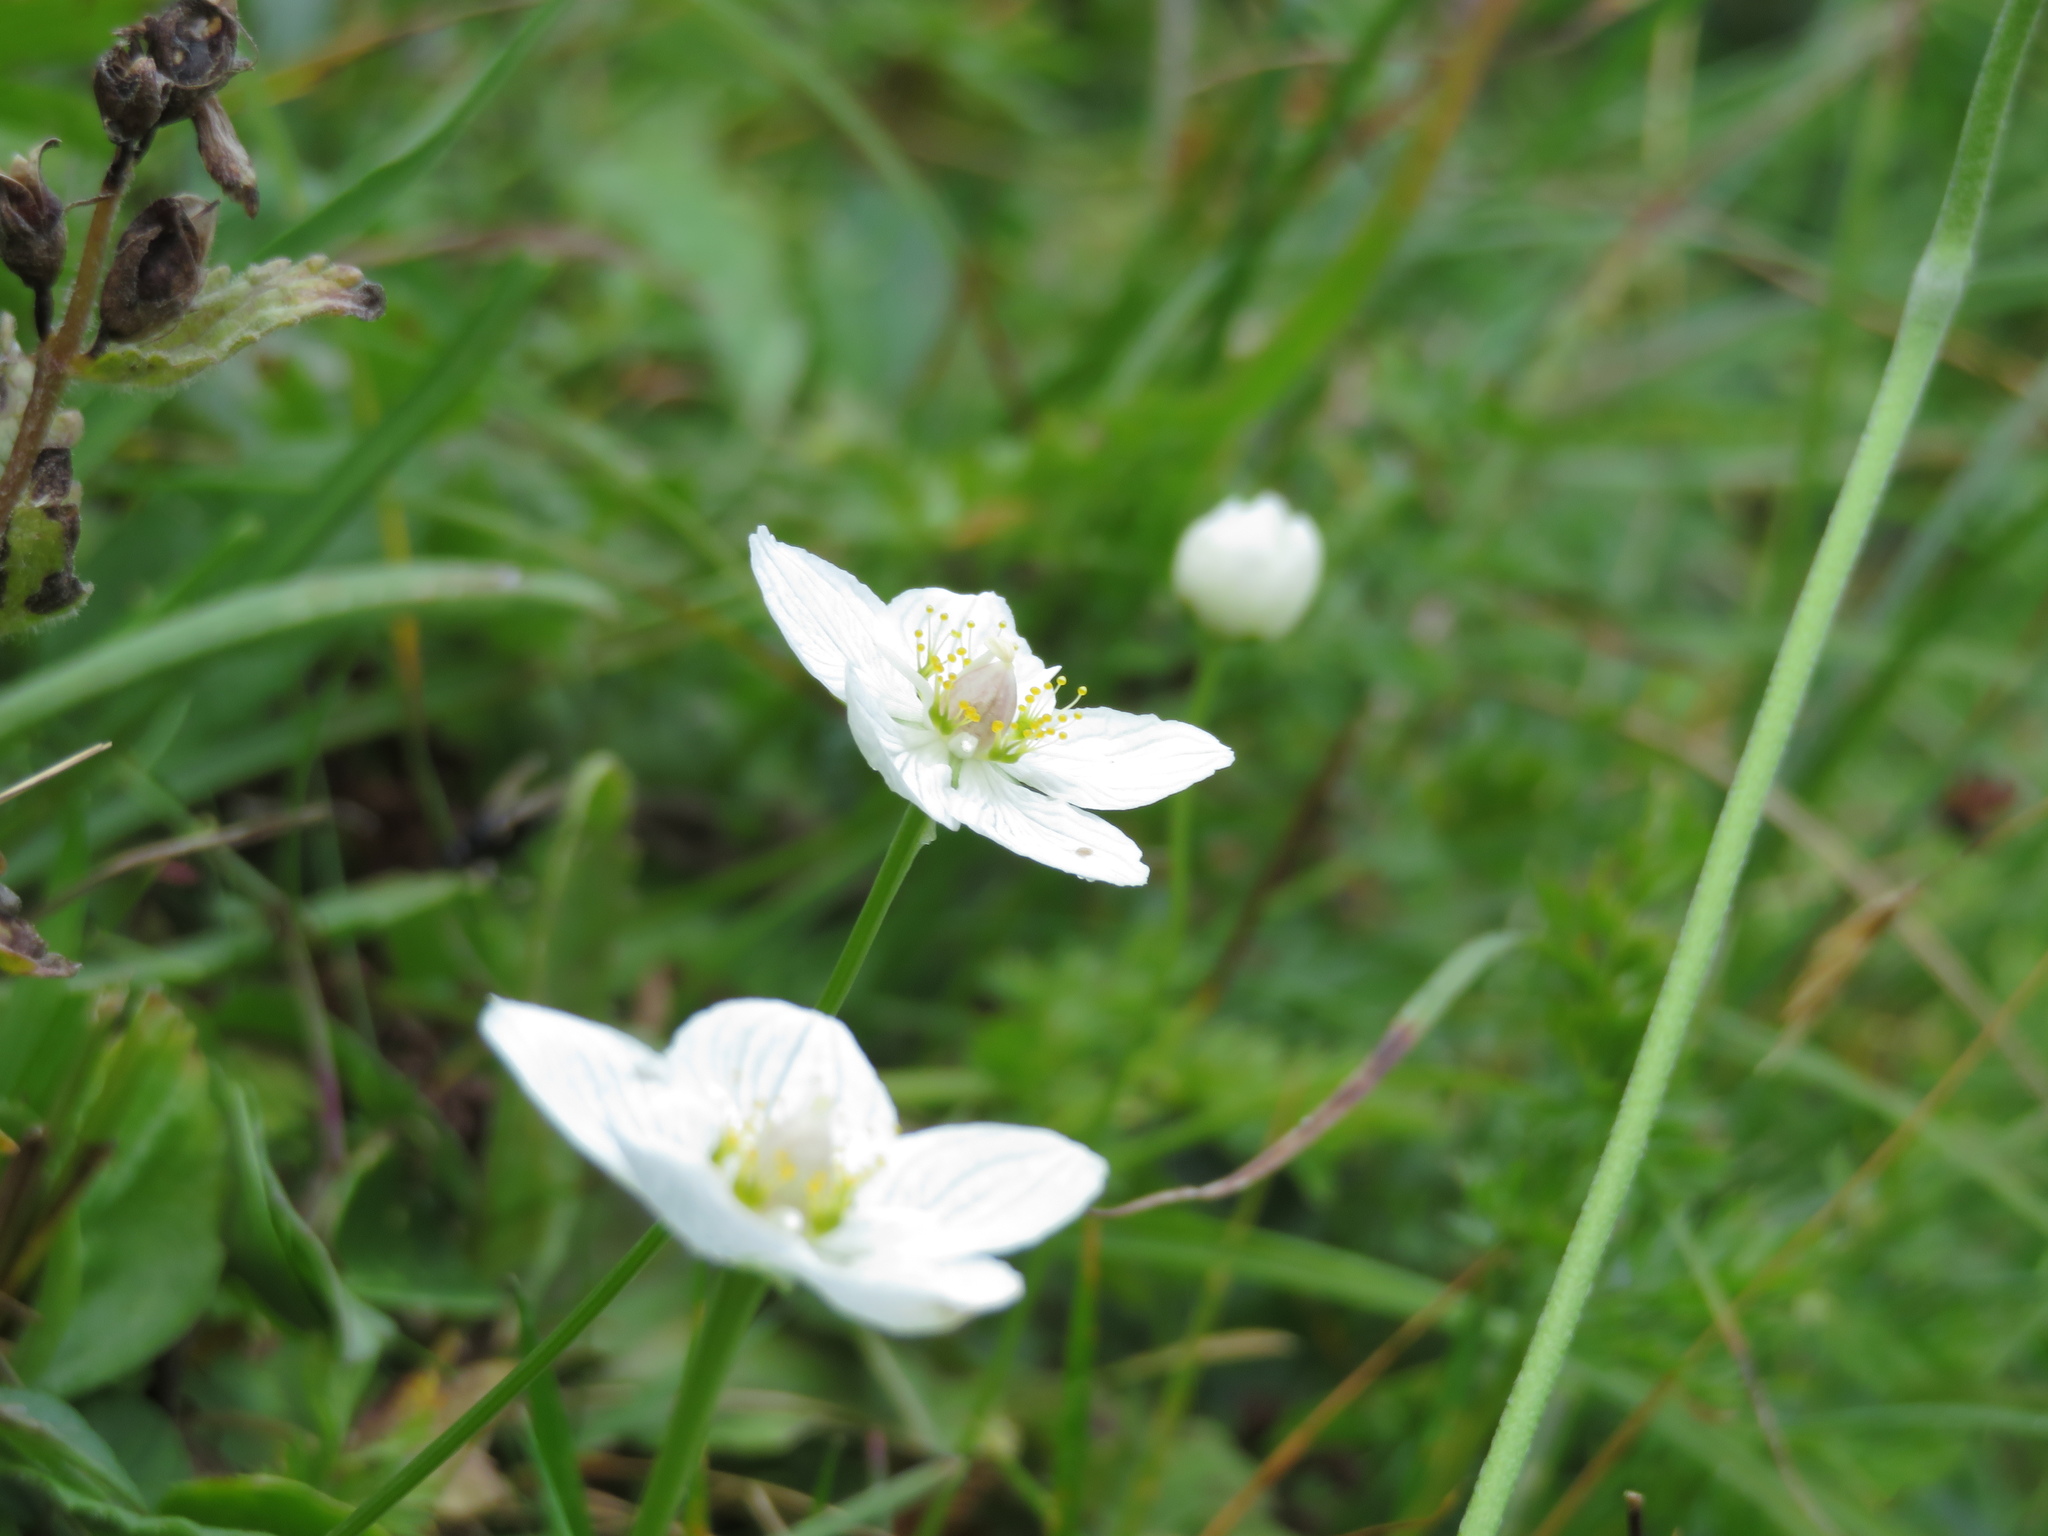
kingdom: Plantae
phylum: Tracheophyta
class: Magnoliopsida
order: Celastrales
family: Parnassiaceae
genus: Parnassia
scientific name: Parnassia palustris
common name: Grass-of-parnassus
